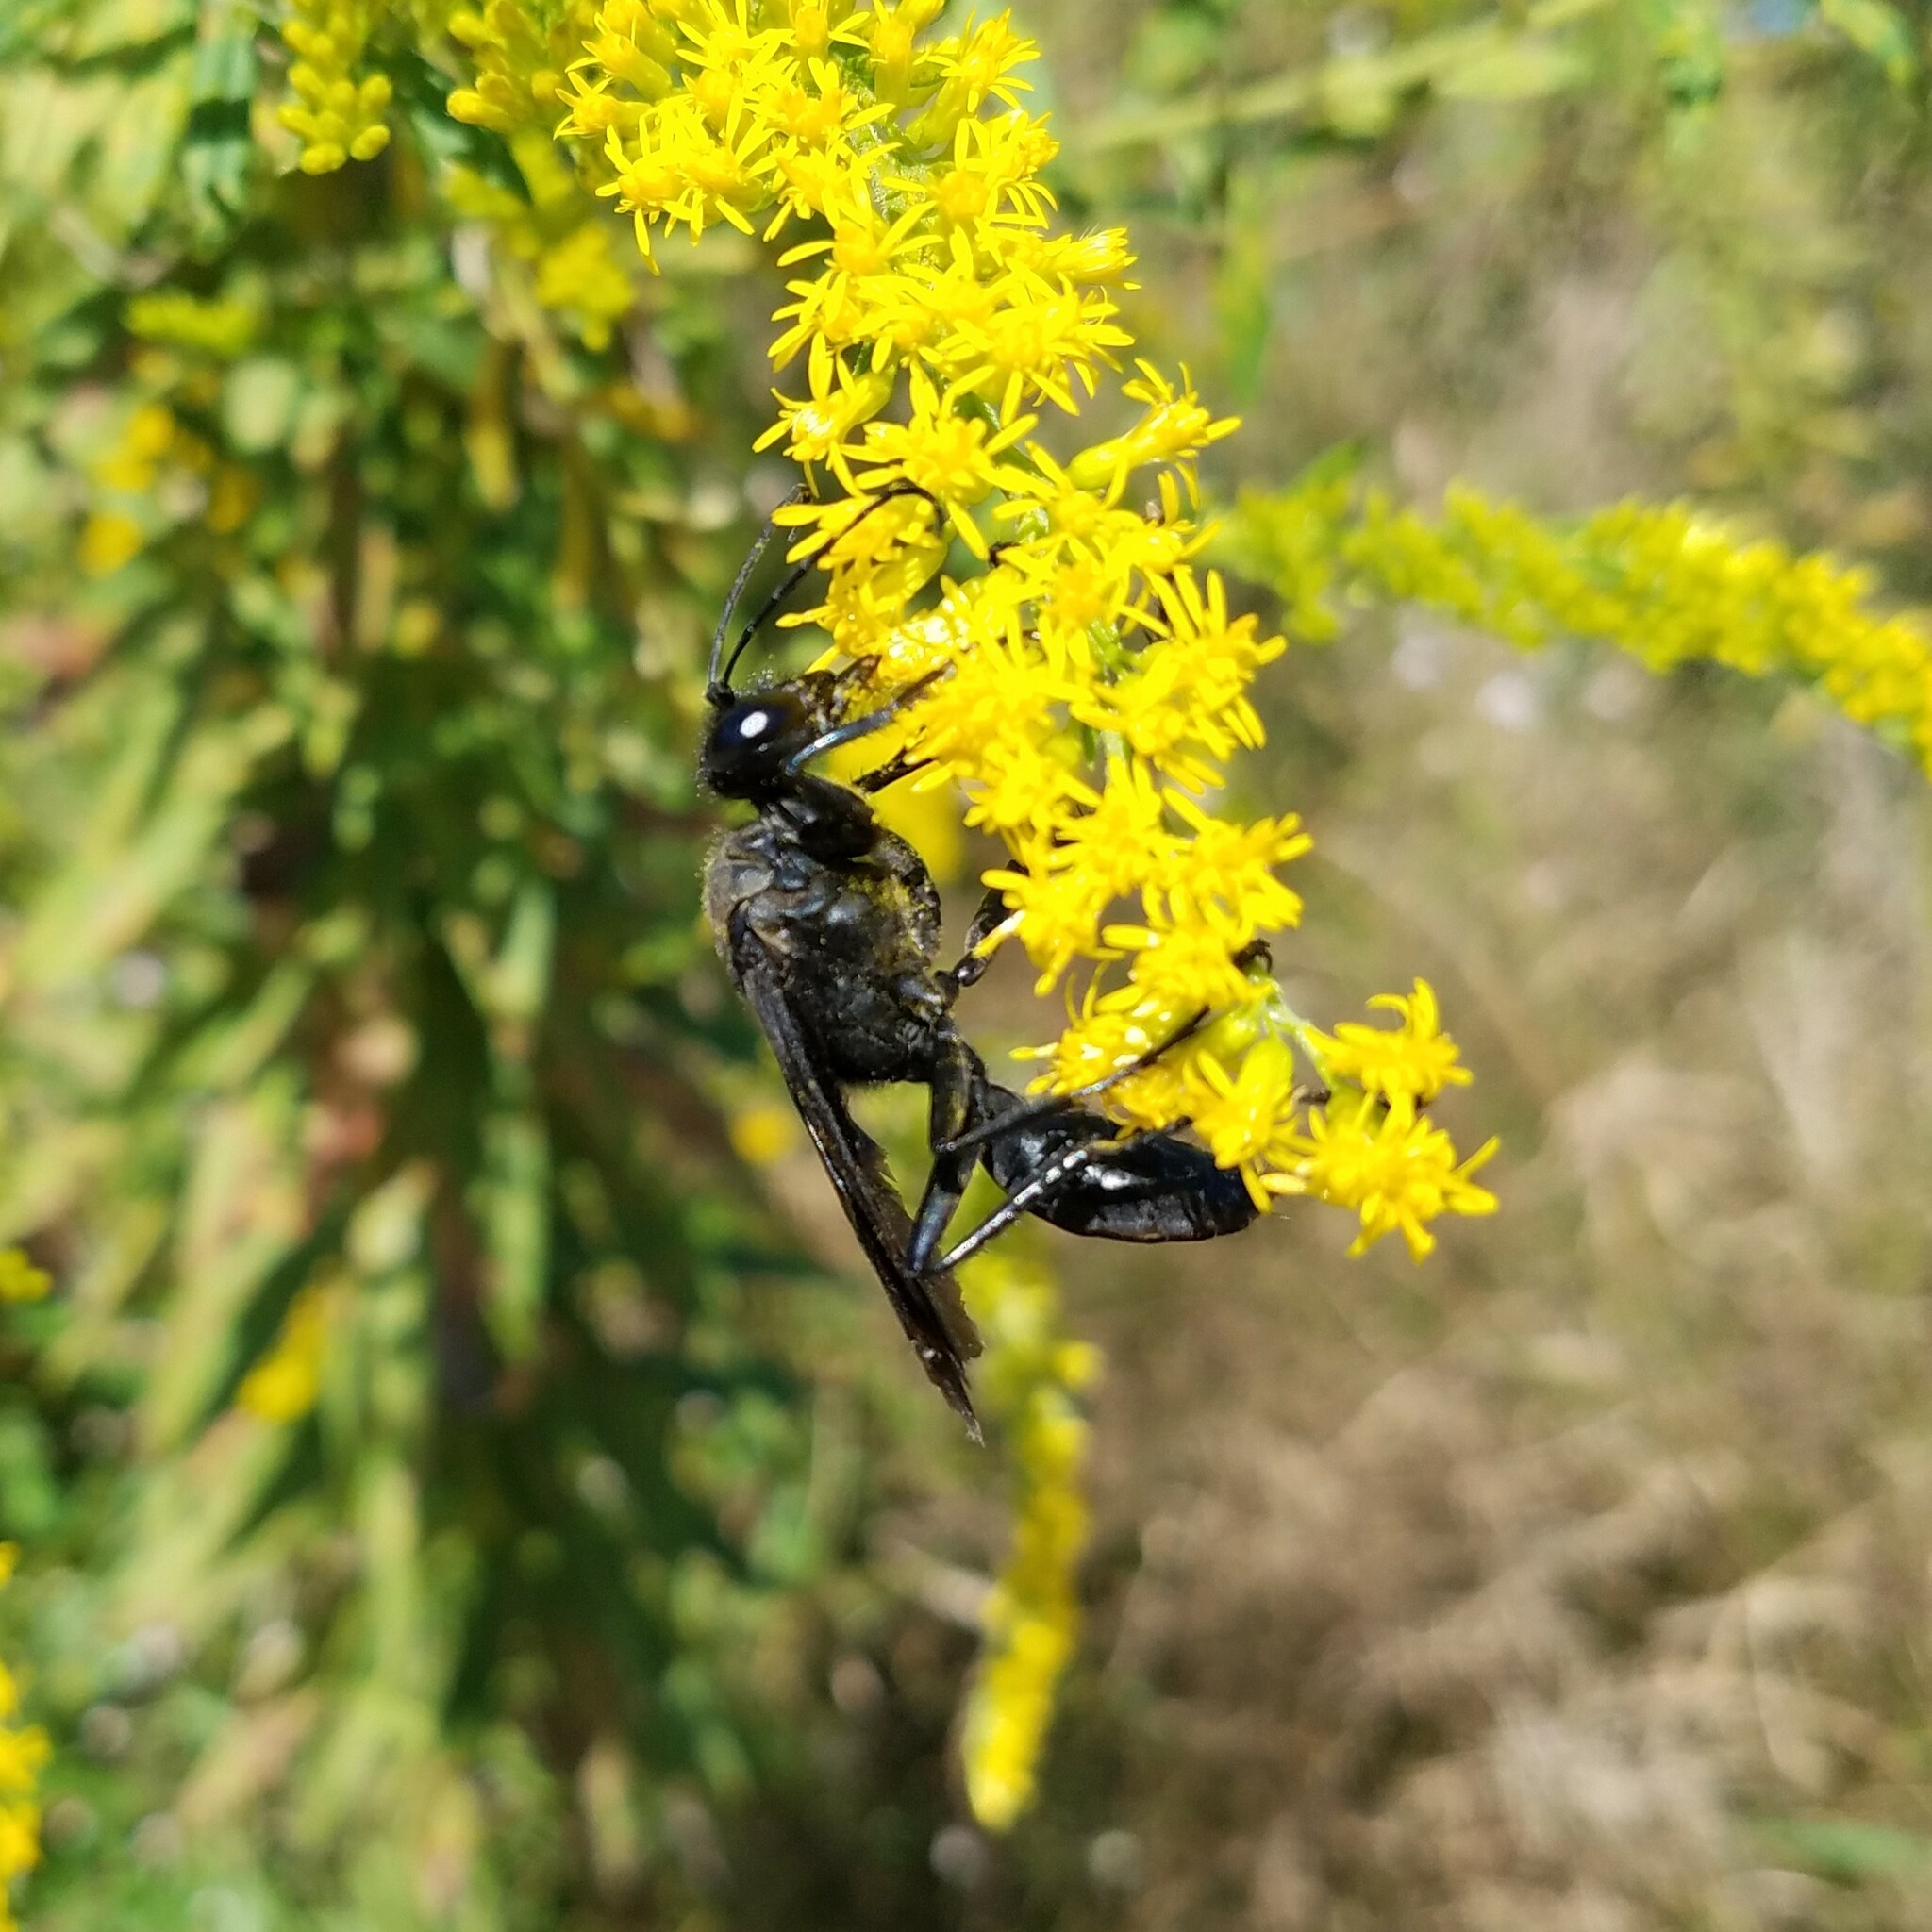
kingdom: Animalia
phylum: Arthropoda
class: Insecta
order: Hymenoptera
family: Sphecidae
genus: Sphex
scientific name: Sphex pensylvanicus
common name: Great black digger wasp
